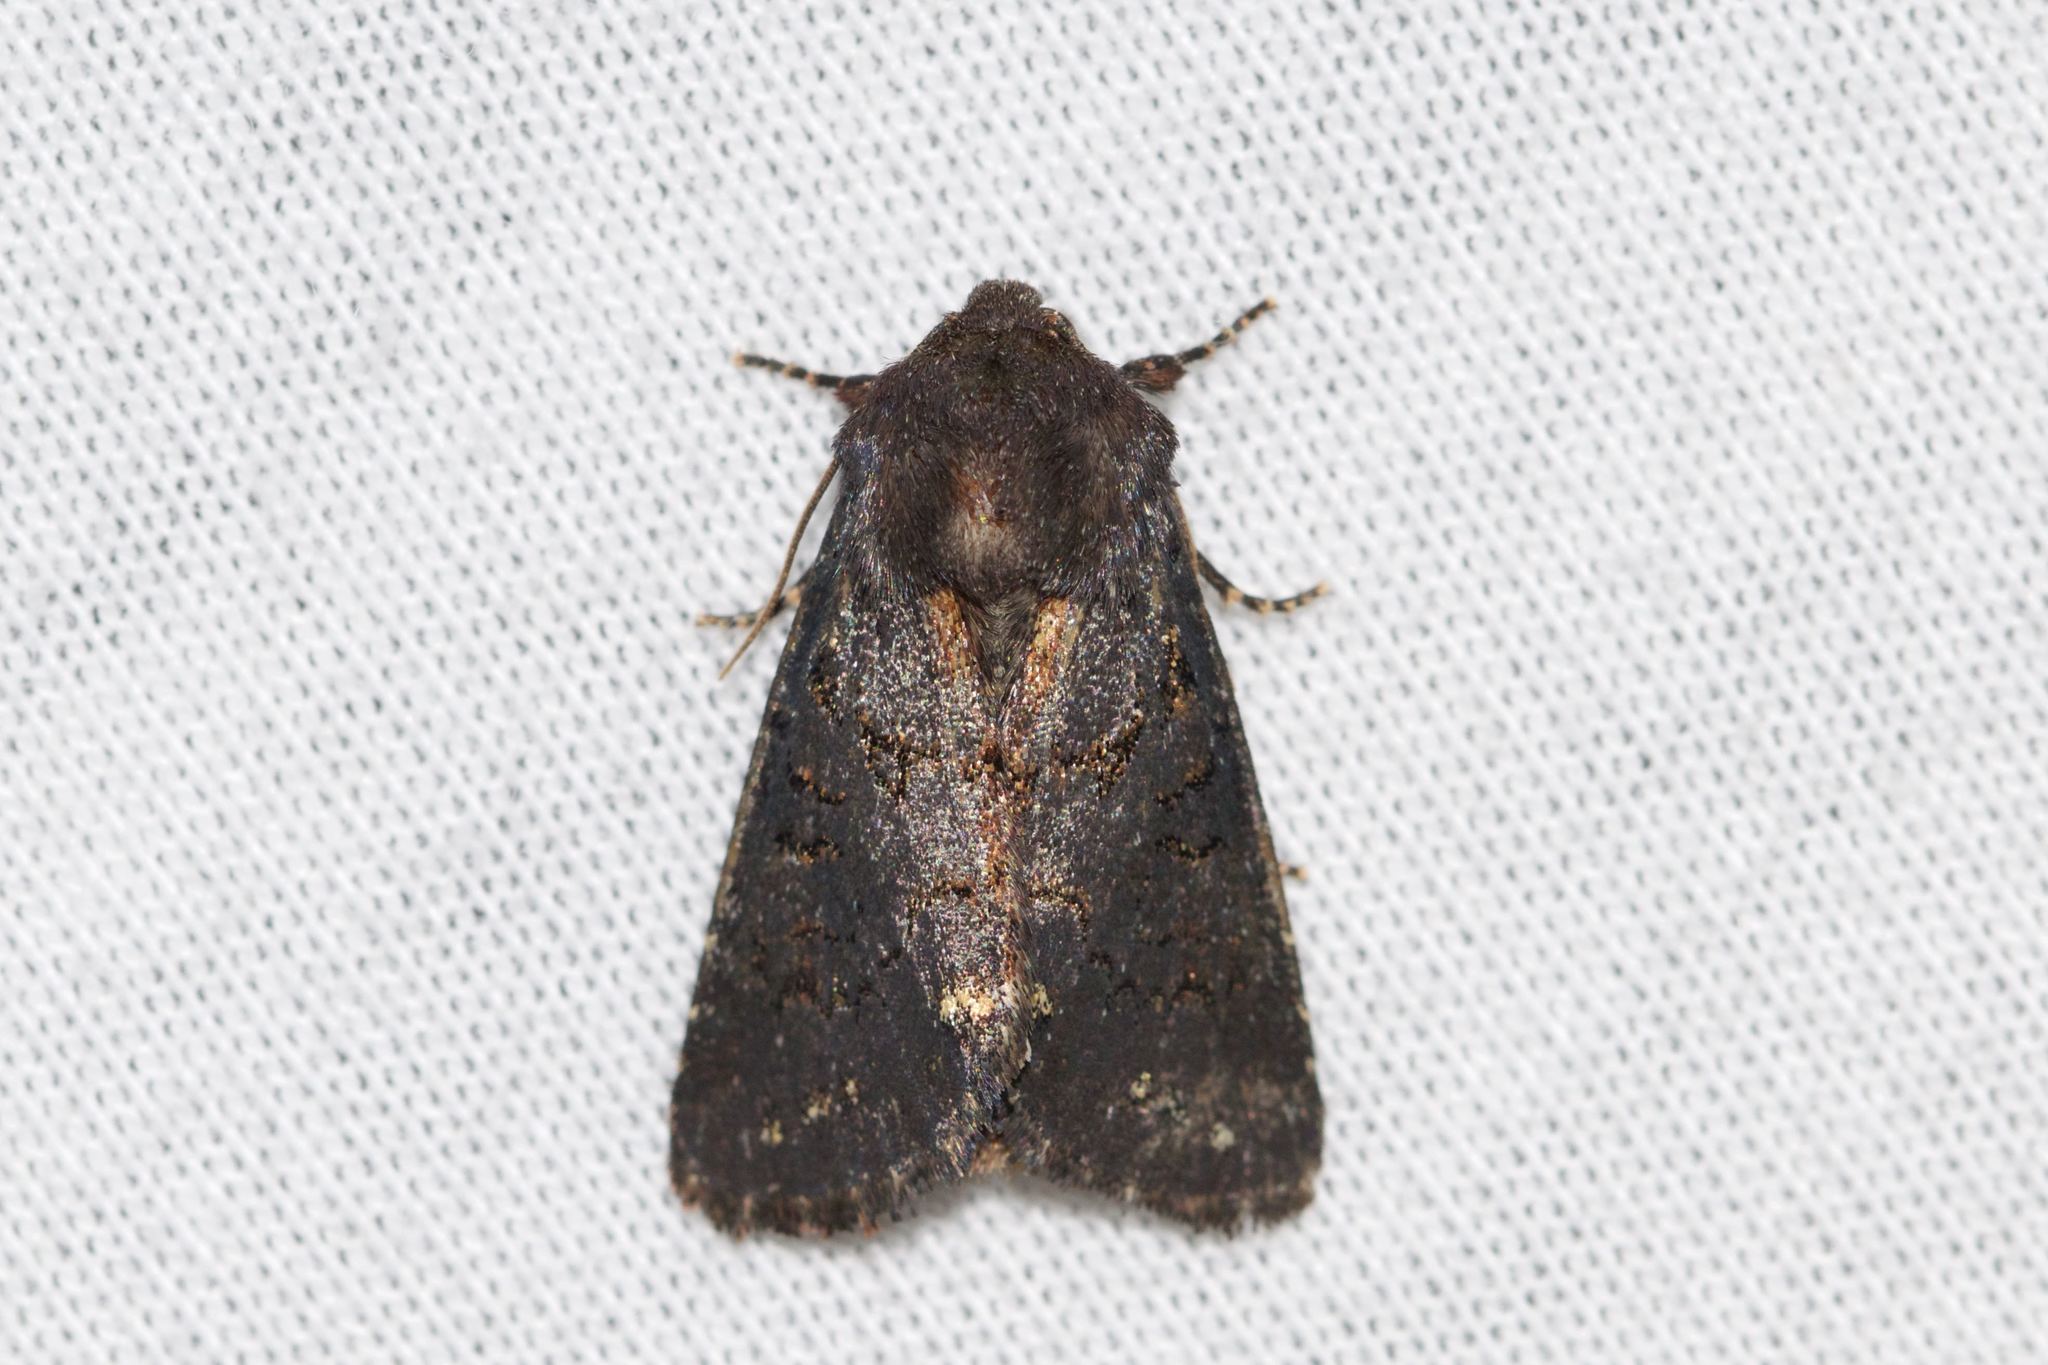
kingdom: Animalia
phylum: Arthropoda
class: Insecta
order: Lepidoptera
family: Noctuidae
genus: Melanchra
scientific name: Melanchra assimilis
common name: Black arches
